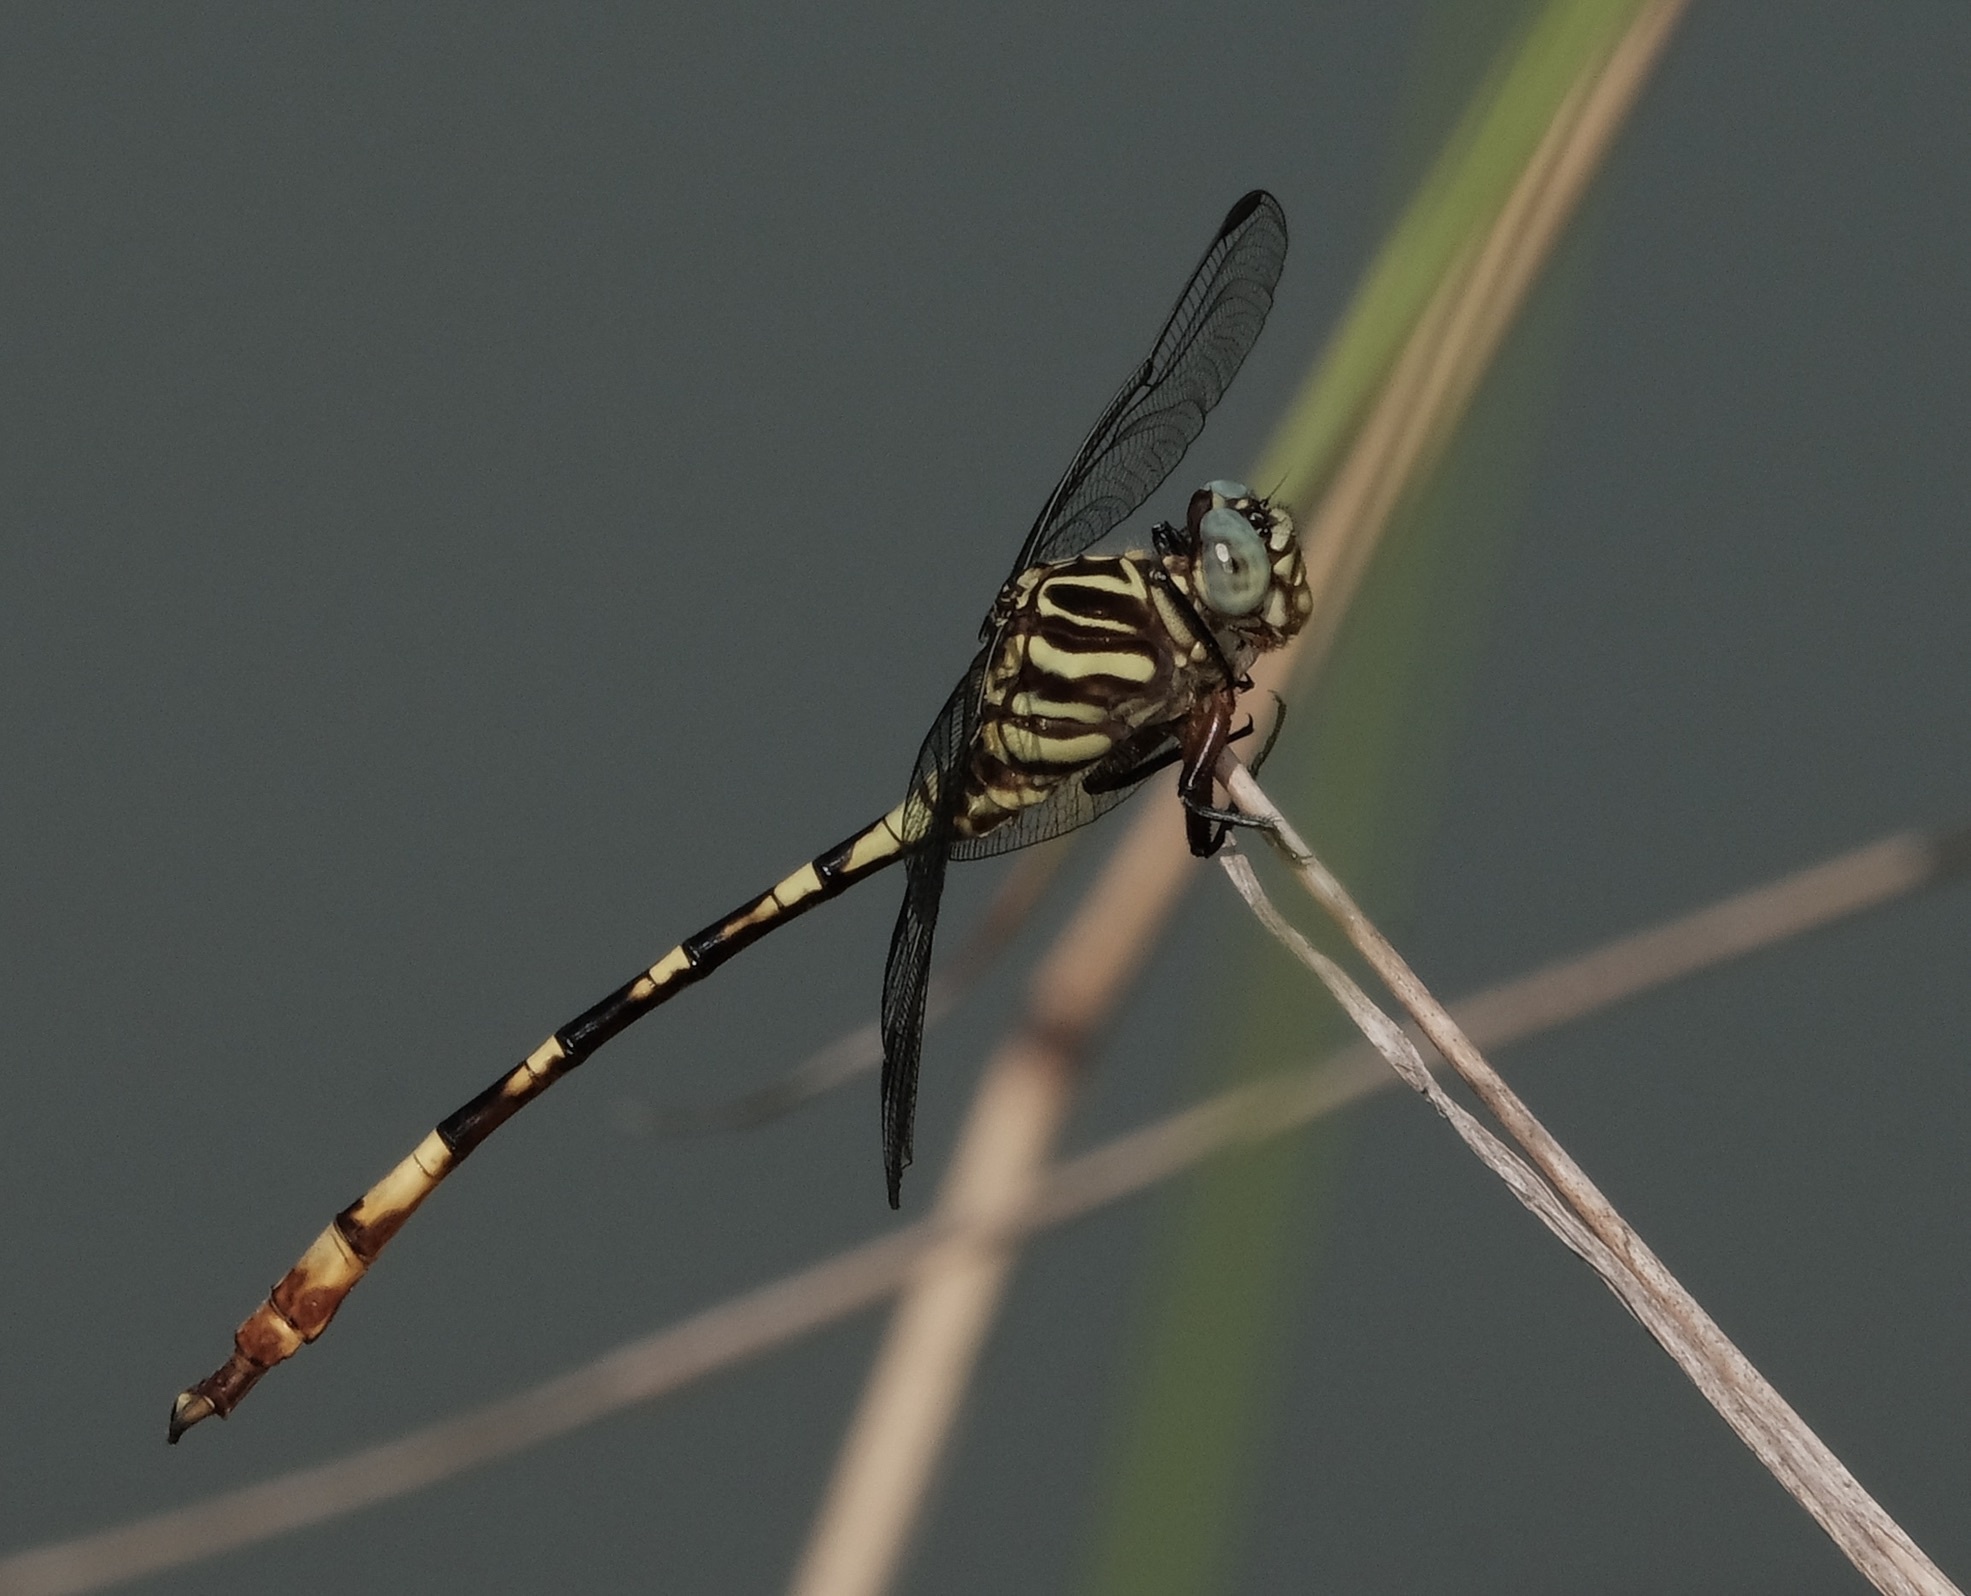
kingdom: Animalia
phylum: Arthropoda
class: Insecta
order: Odonata
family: Gomphidae
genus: Aphylla
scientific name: Aphylla angustifolia
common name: Broad-striped forceptail
